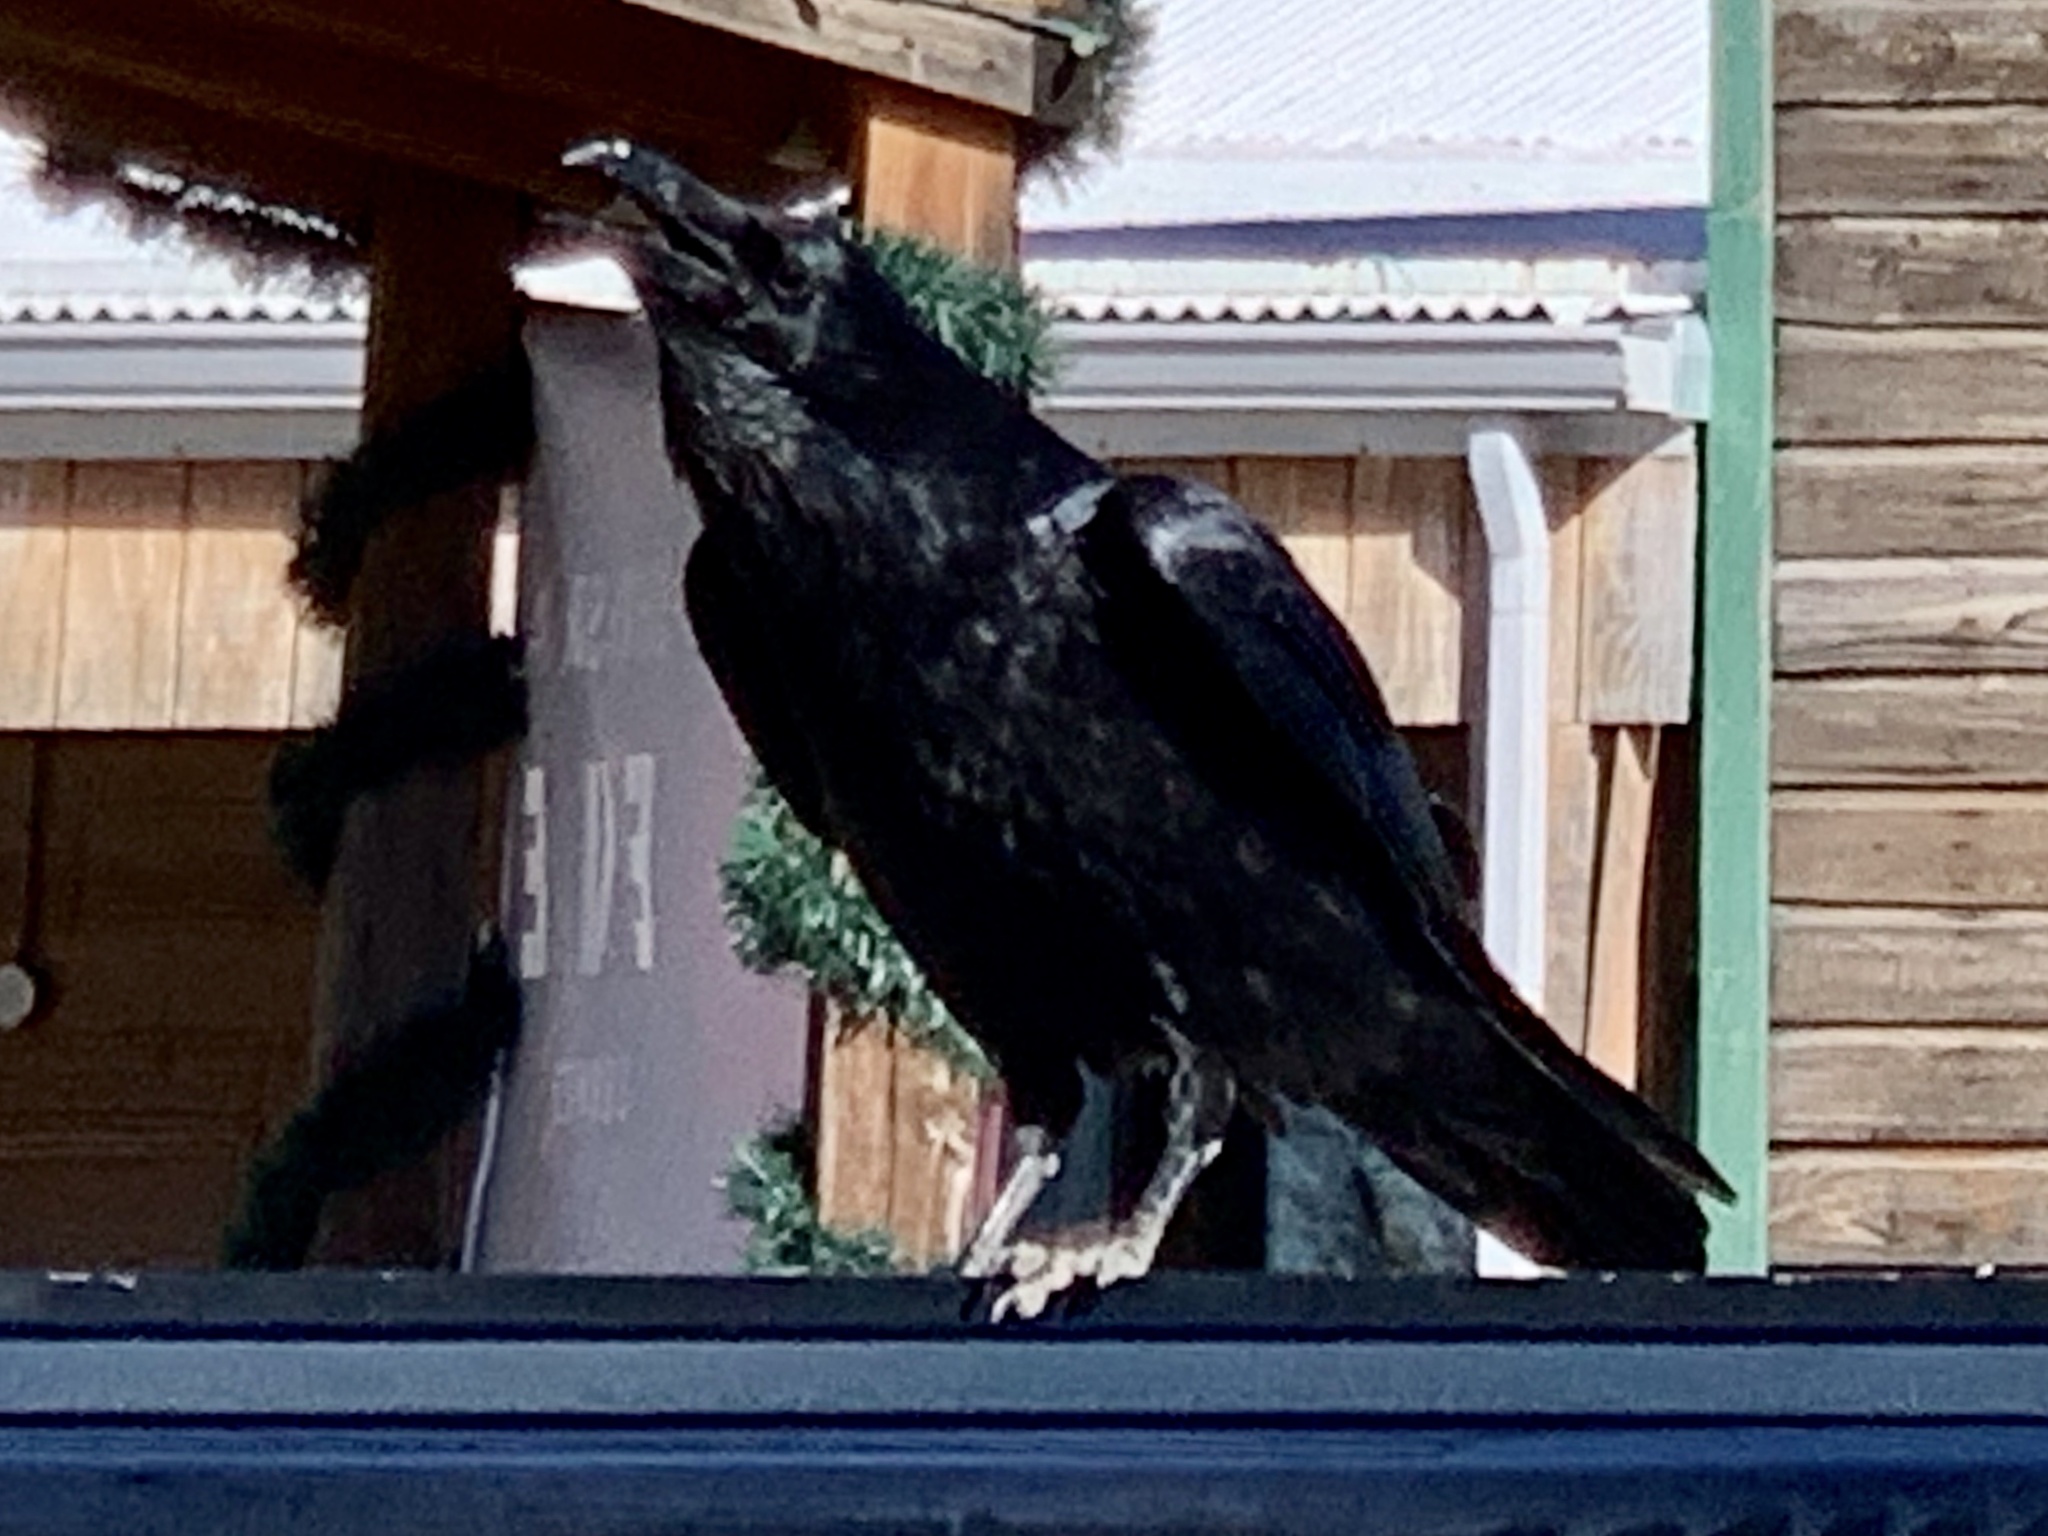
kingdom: Animalia
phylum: Chordata
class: Aves
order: Passeriformes
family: Corvidae
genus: Corvus
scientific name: Corvus corax
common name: Common raven
